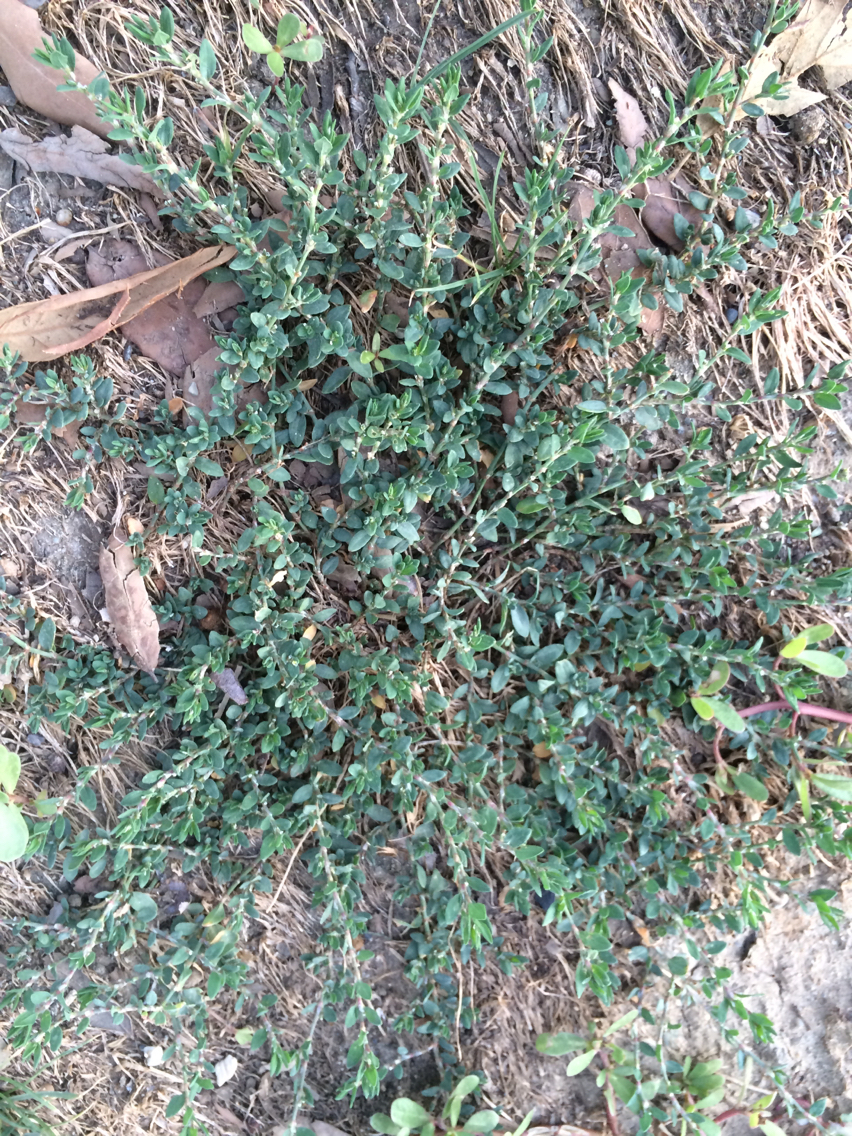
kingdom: Plantae
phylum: Tracheophyta
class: Magnoliopsida
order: Caryophyllales
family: Polygonaceae
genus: Polygonum
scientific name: Polygonum aviculare
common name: Prostrate knotweed
